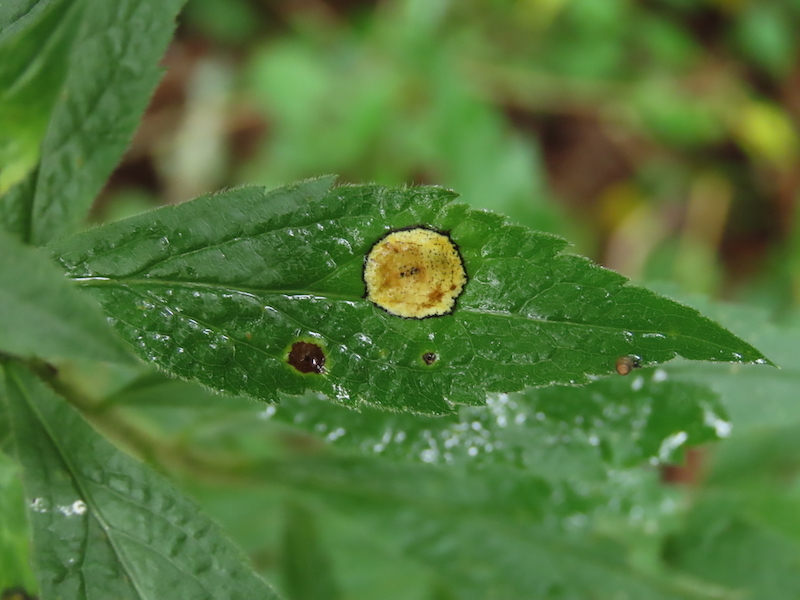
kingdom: Animalia
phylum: Arthropoda
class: Insecta
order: Diptera
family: Cecidomyiidae
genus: Asteromyia
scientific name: Asteromyia carbonifera
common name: Carbonifera goldenrod gall midge
